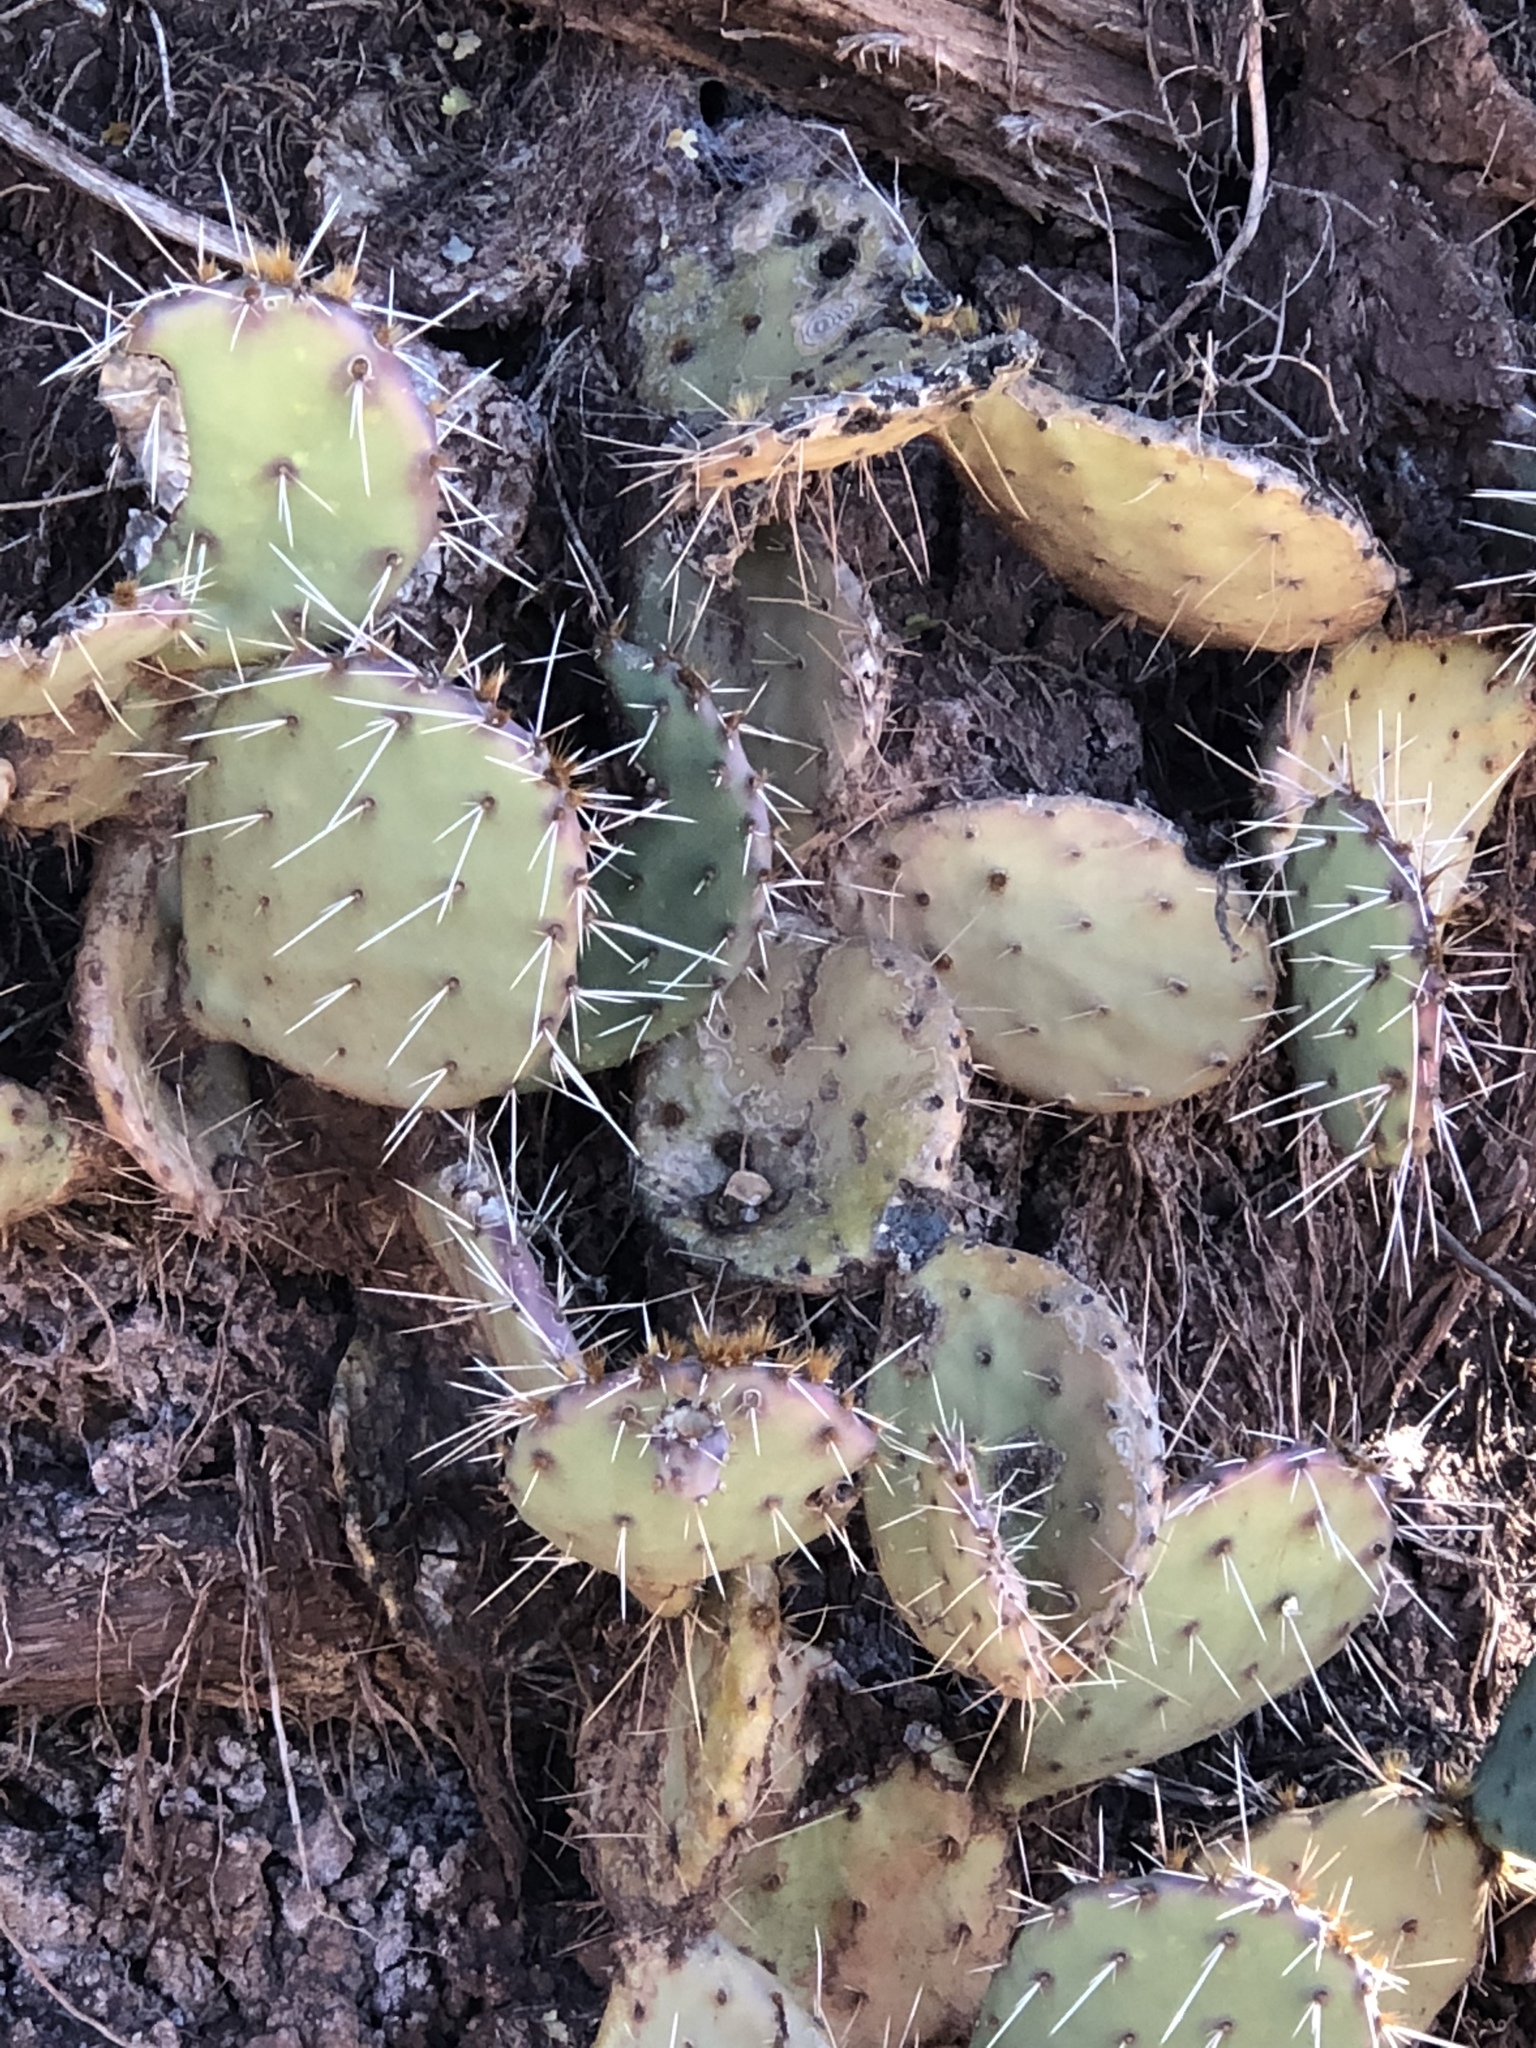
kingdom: Plantae
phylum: Tracheophyta
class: Magnoliopsida
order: Caryophyllales
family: Cactaceae
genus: Opuntia
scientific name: Opuntia phaeacantha
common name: New mexico prickly-pear
